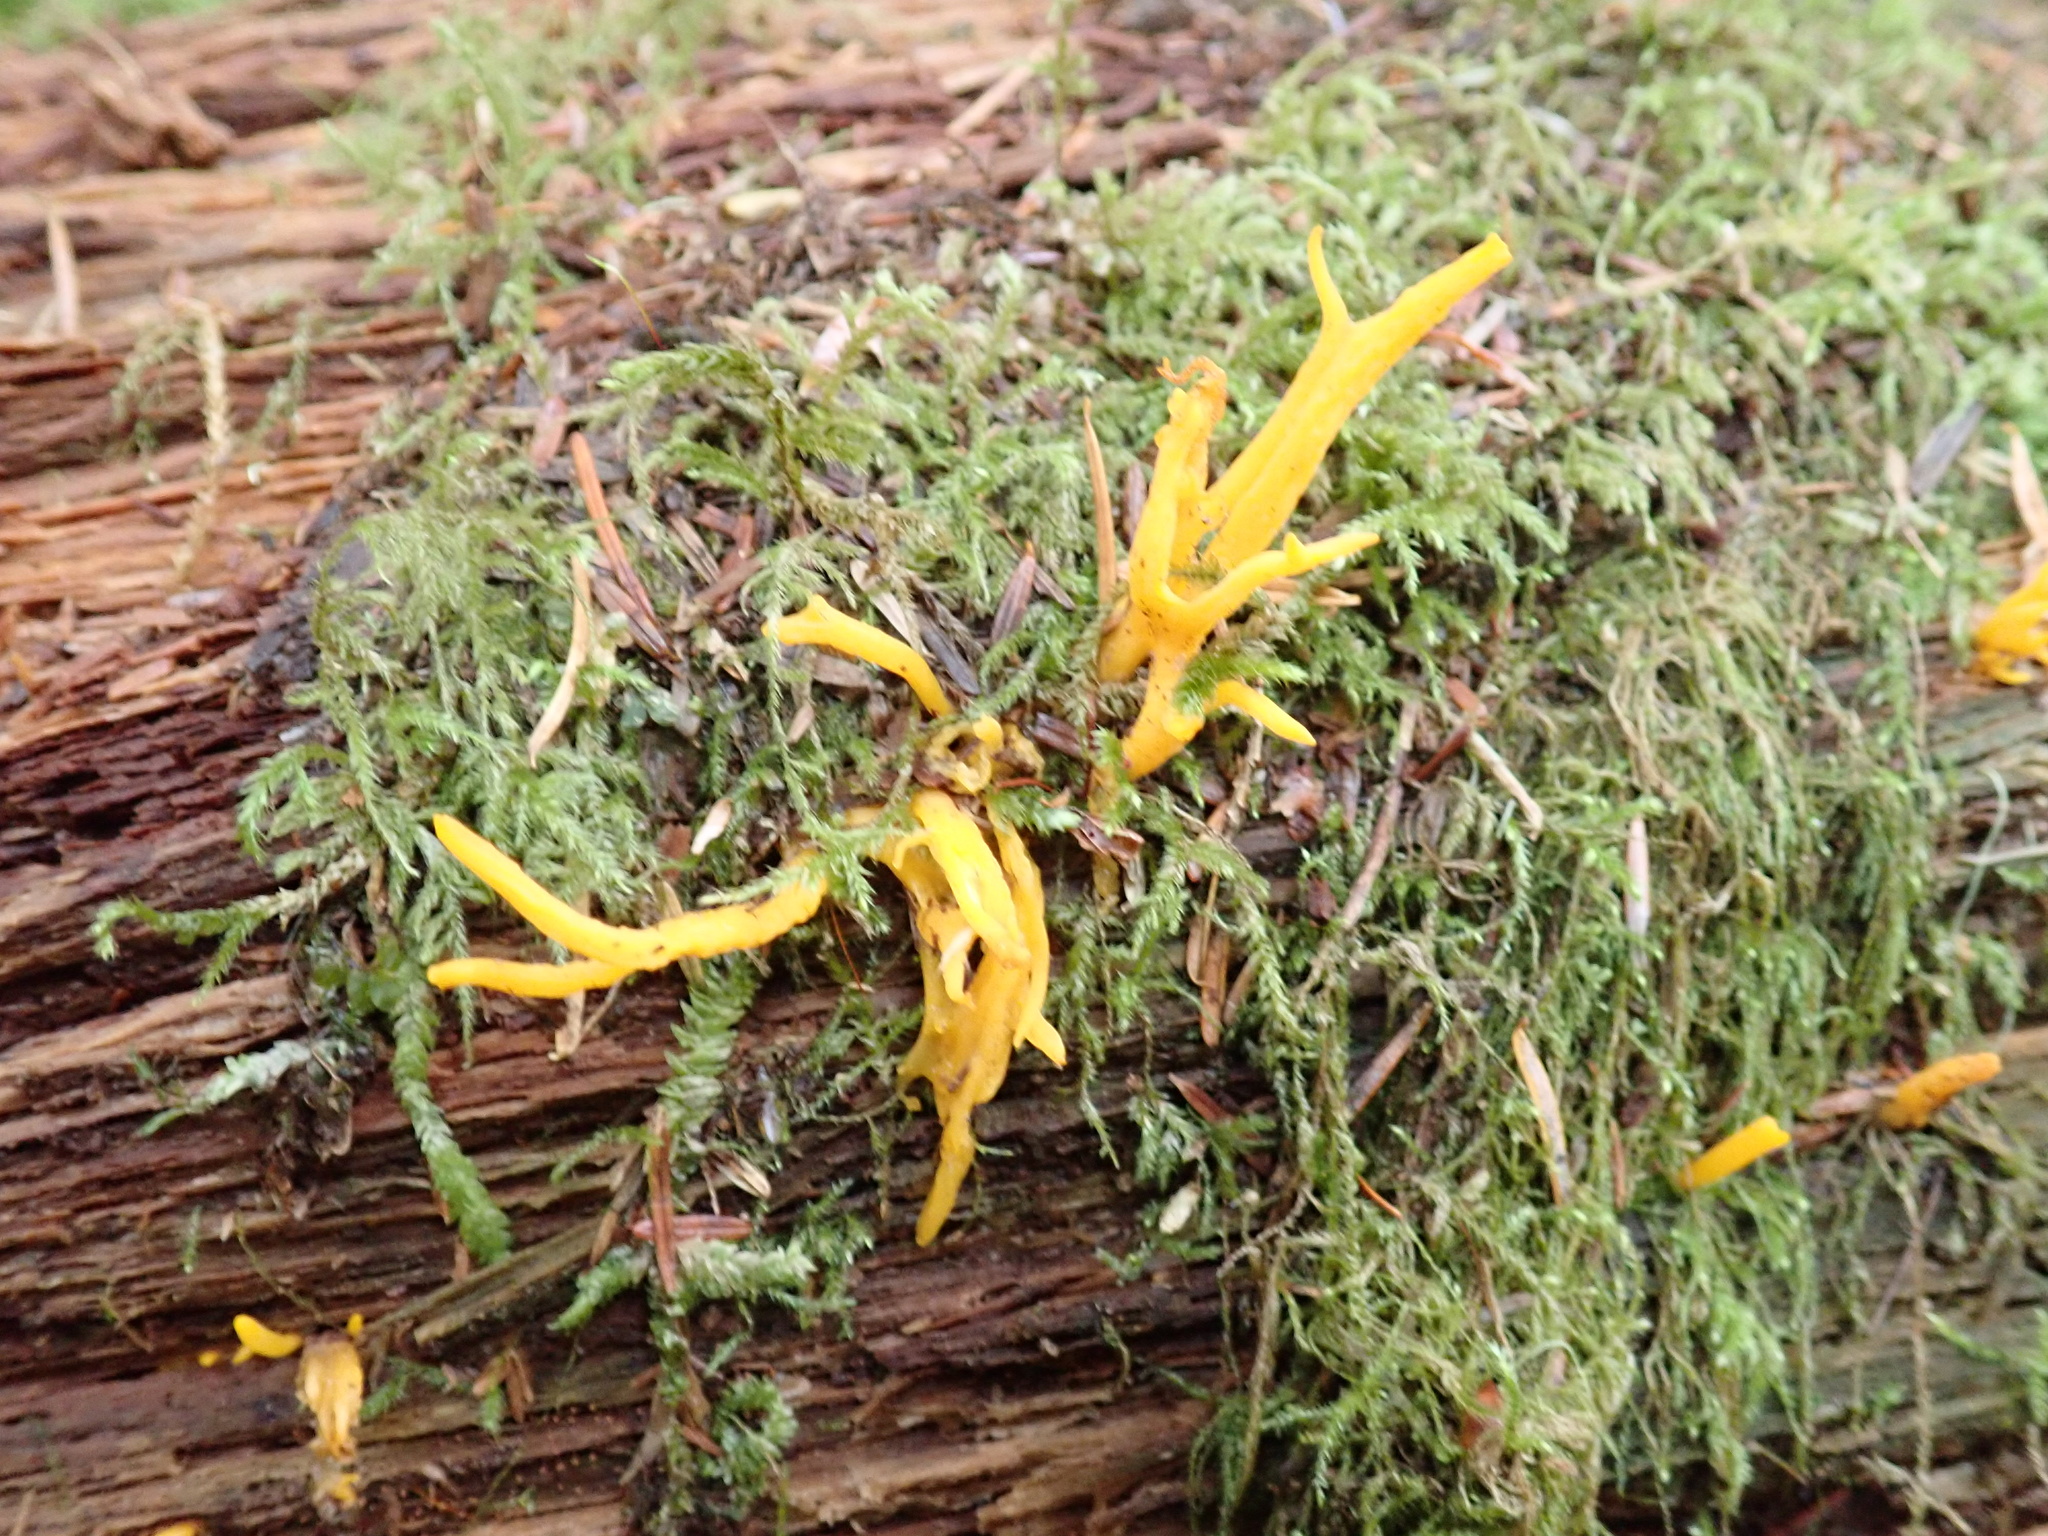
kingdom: Fungi
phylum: Basidiomycota
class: Dacrymycetes
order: Dacrymycetales
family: Dacrymycetaceae
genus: Calocera
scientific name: Calocera cornea
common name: Small stagshorn
